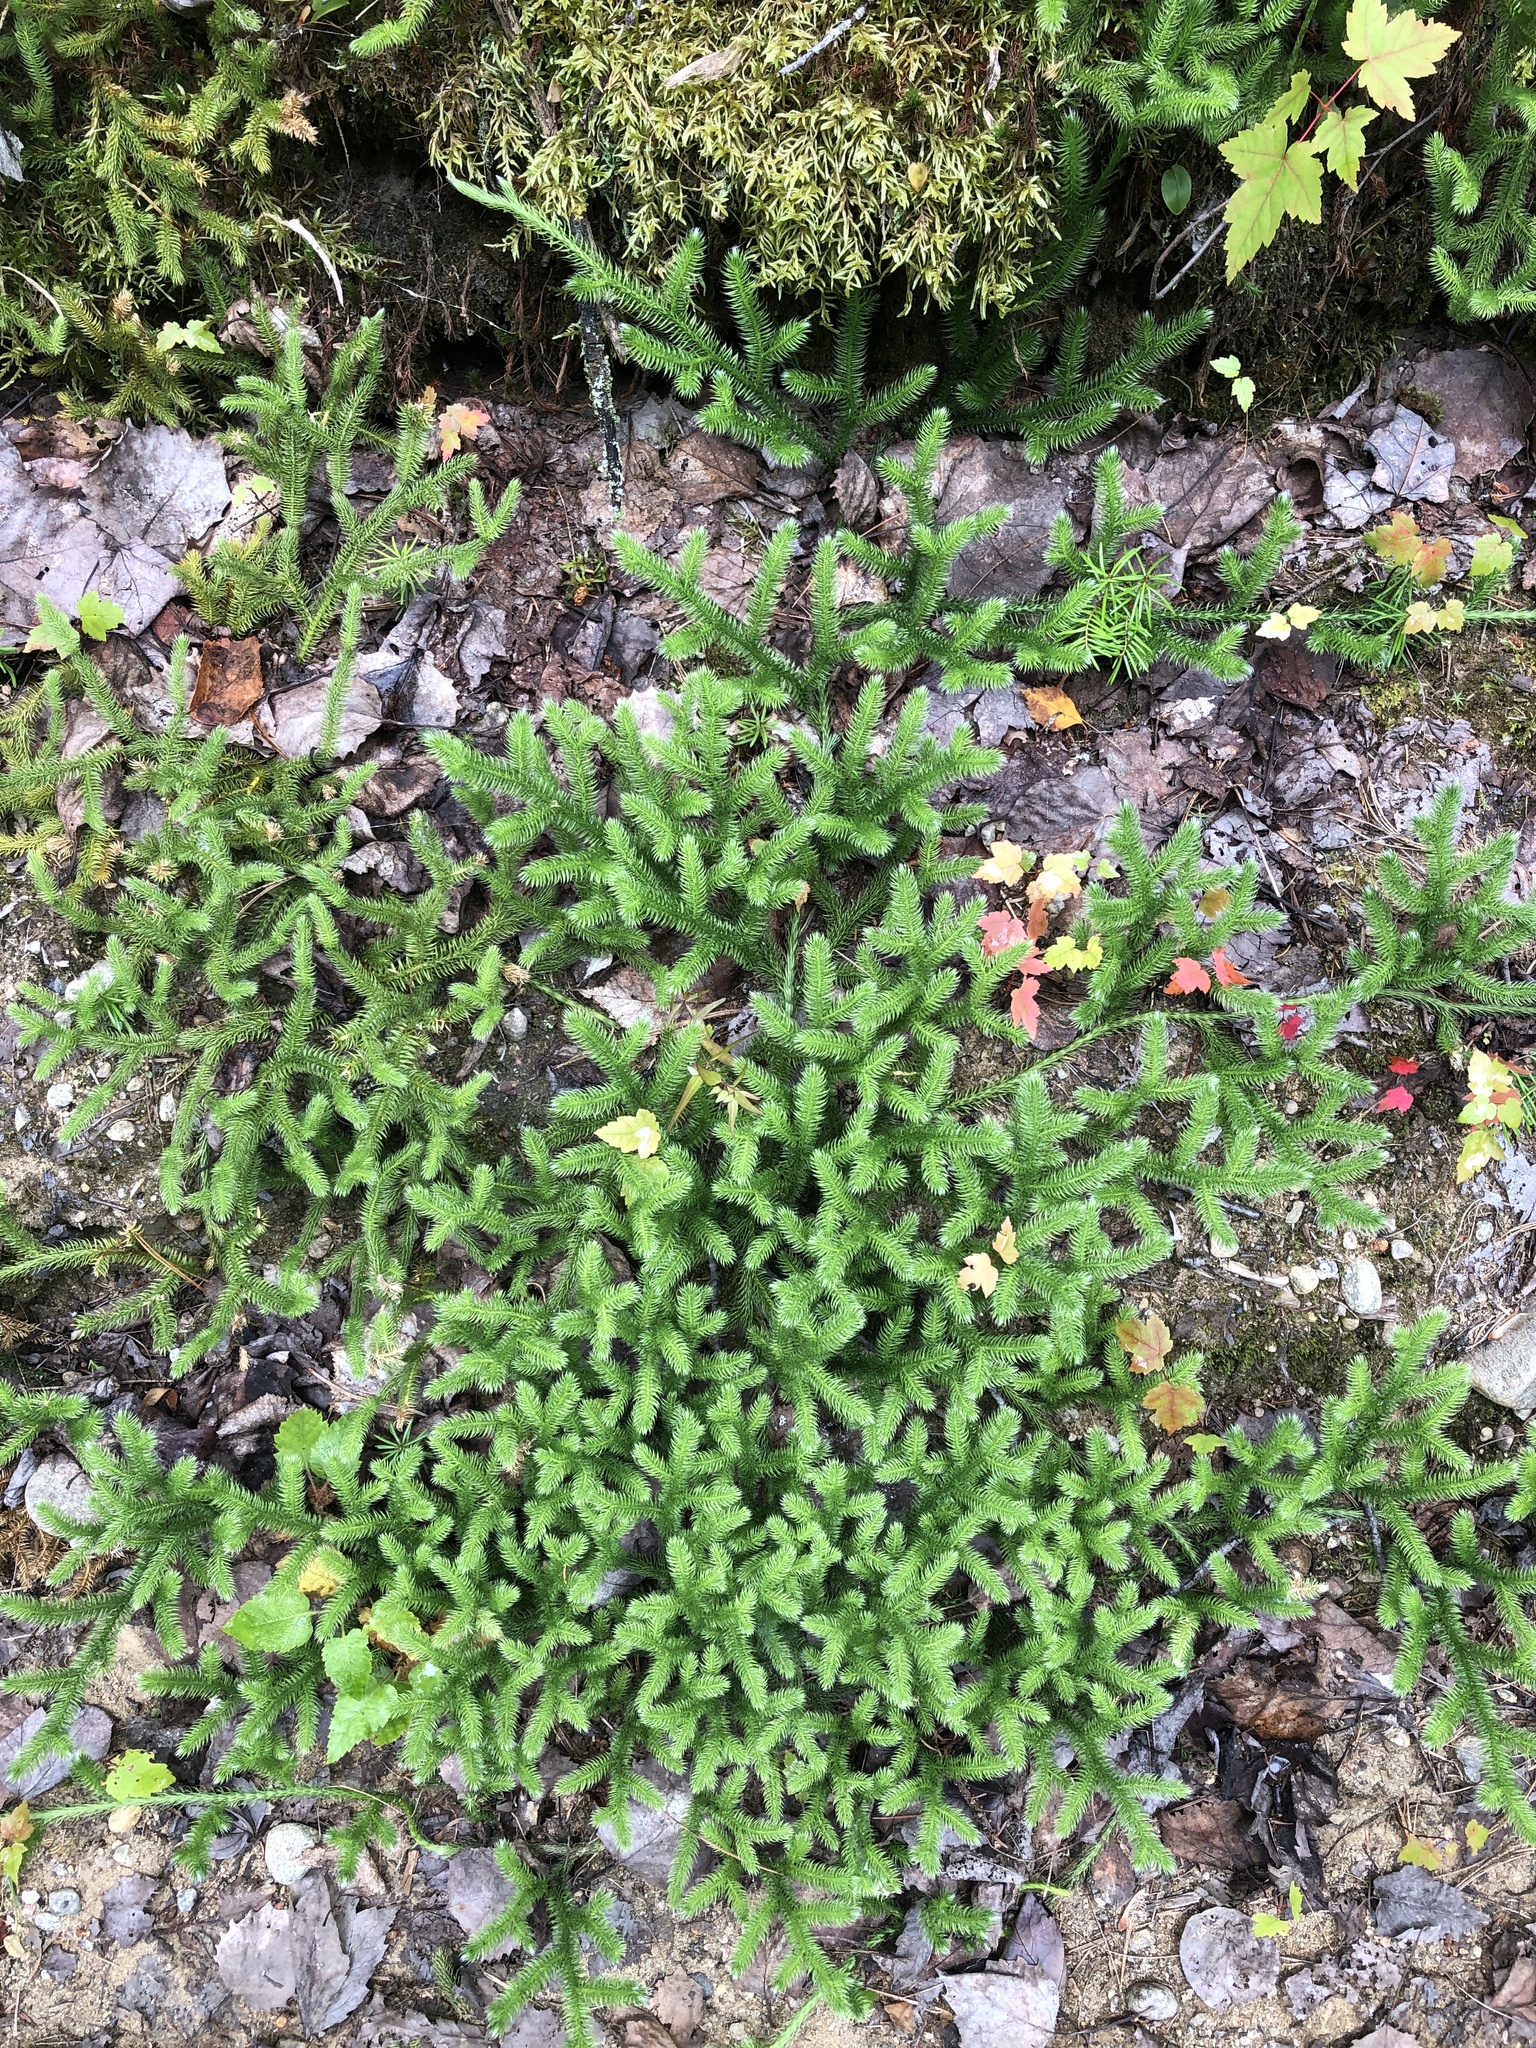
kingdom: Plantae
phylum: Tracheophyta
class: Lycopodiopsida
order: Lycopodiales
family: Lycopodiaceae
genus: Lycopodium
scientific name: Lycopodium clavatum
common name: Stag's-horn clubmoss
